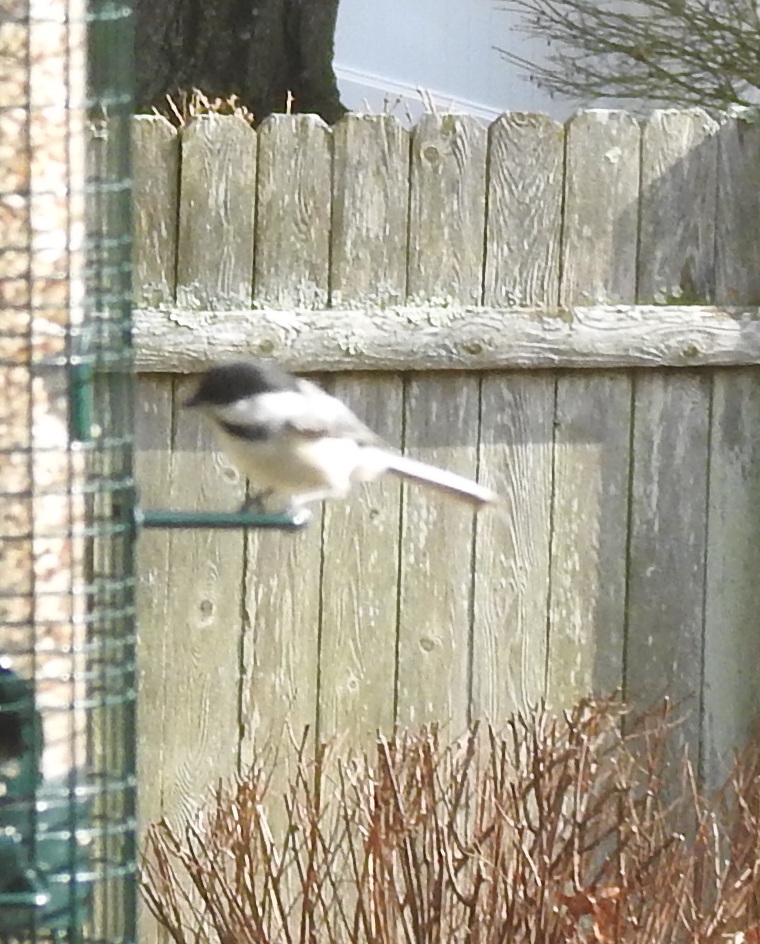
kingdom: Animalia
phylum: Chordata
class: Aves
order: Passeriformes
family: Paridae
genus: Poecile
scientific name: Poecile atricapillus
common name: Black-capped chickadee
